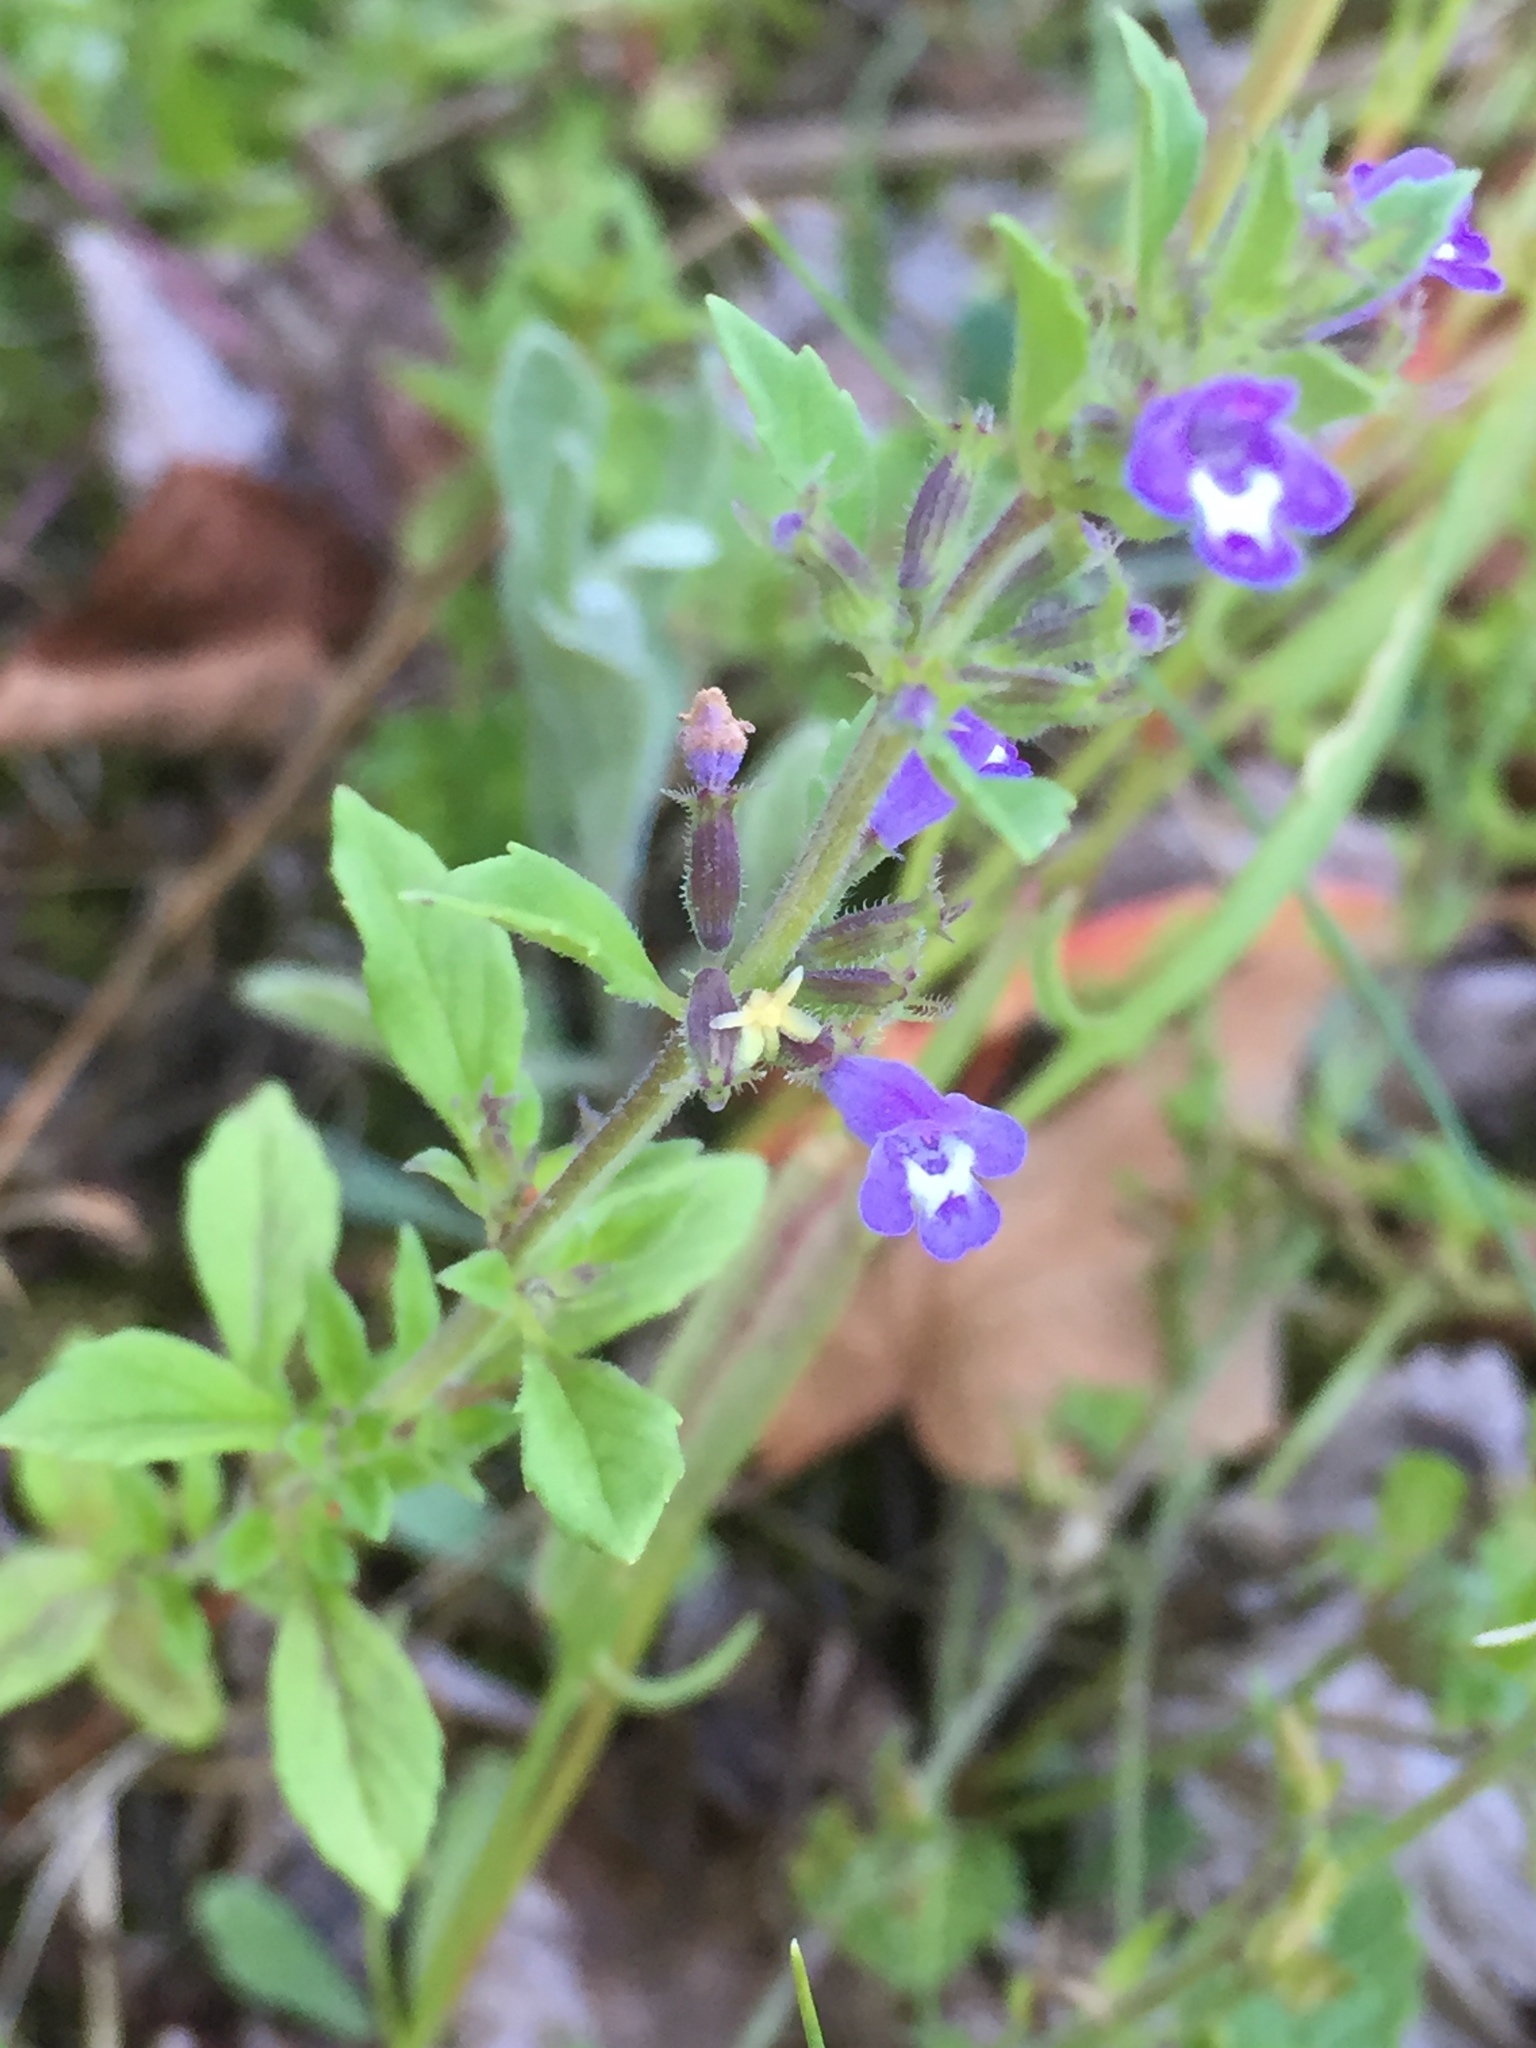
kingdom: Plantae
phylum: Tracheophyta
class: Magnoliopsida
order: Lamiales
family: Lamiaceae
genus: Clinopodium
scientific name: Clinopodium acinos
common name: Basil thyme
